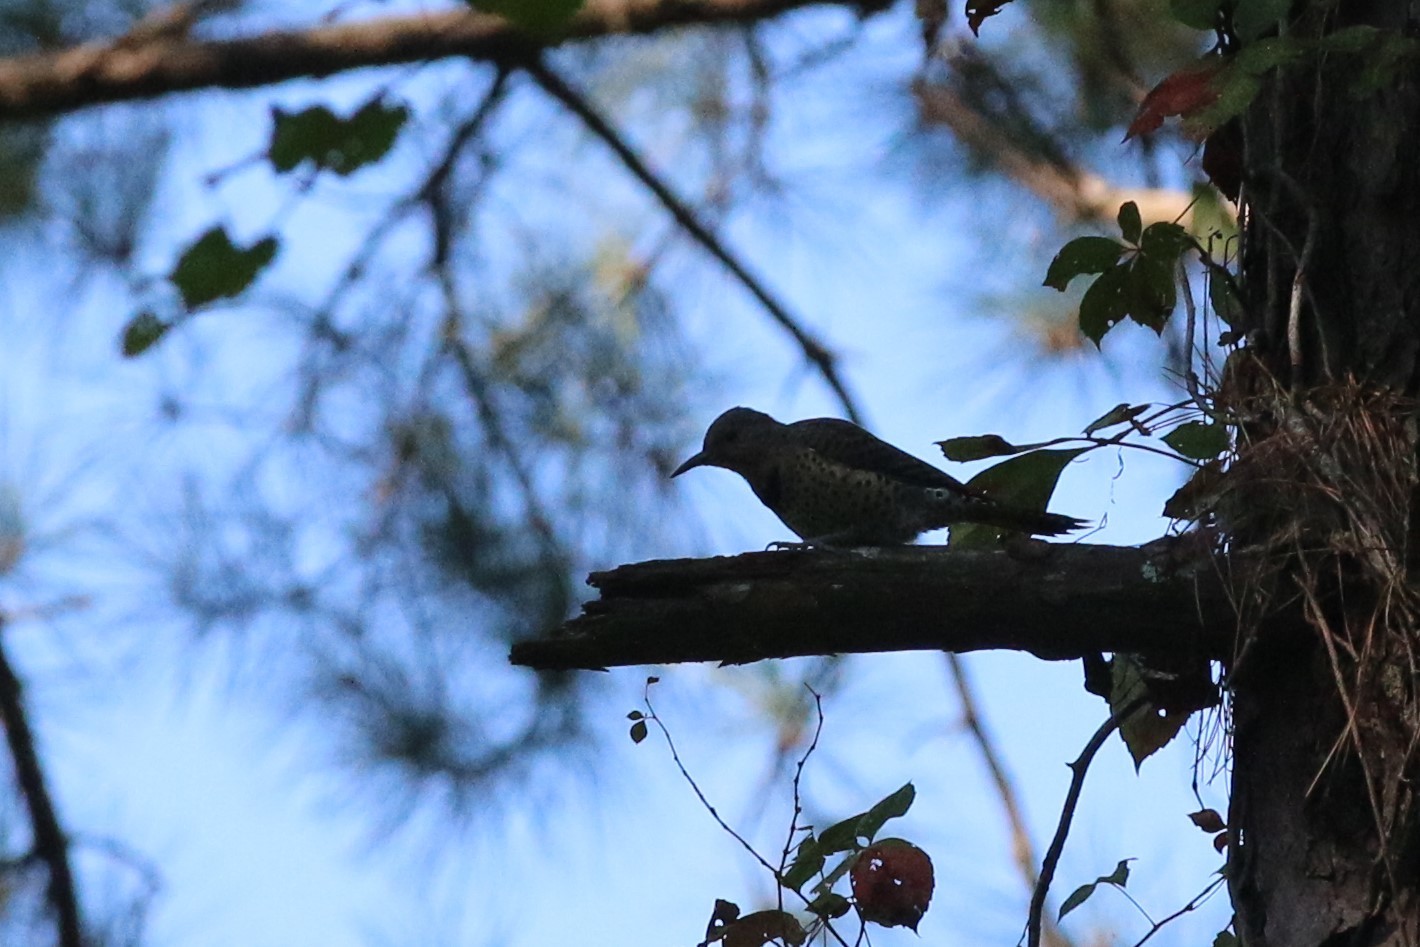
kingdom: Animalia
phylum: Chordata
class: Aves
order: Piciformes
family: Picidae
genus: Colaptes
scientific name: Colaptes auratus
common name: Northern flicker
